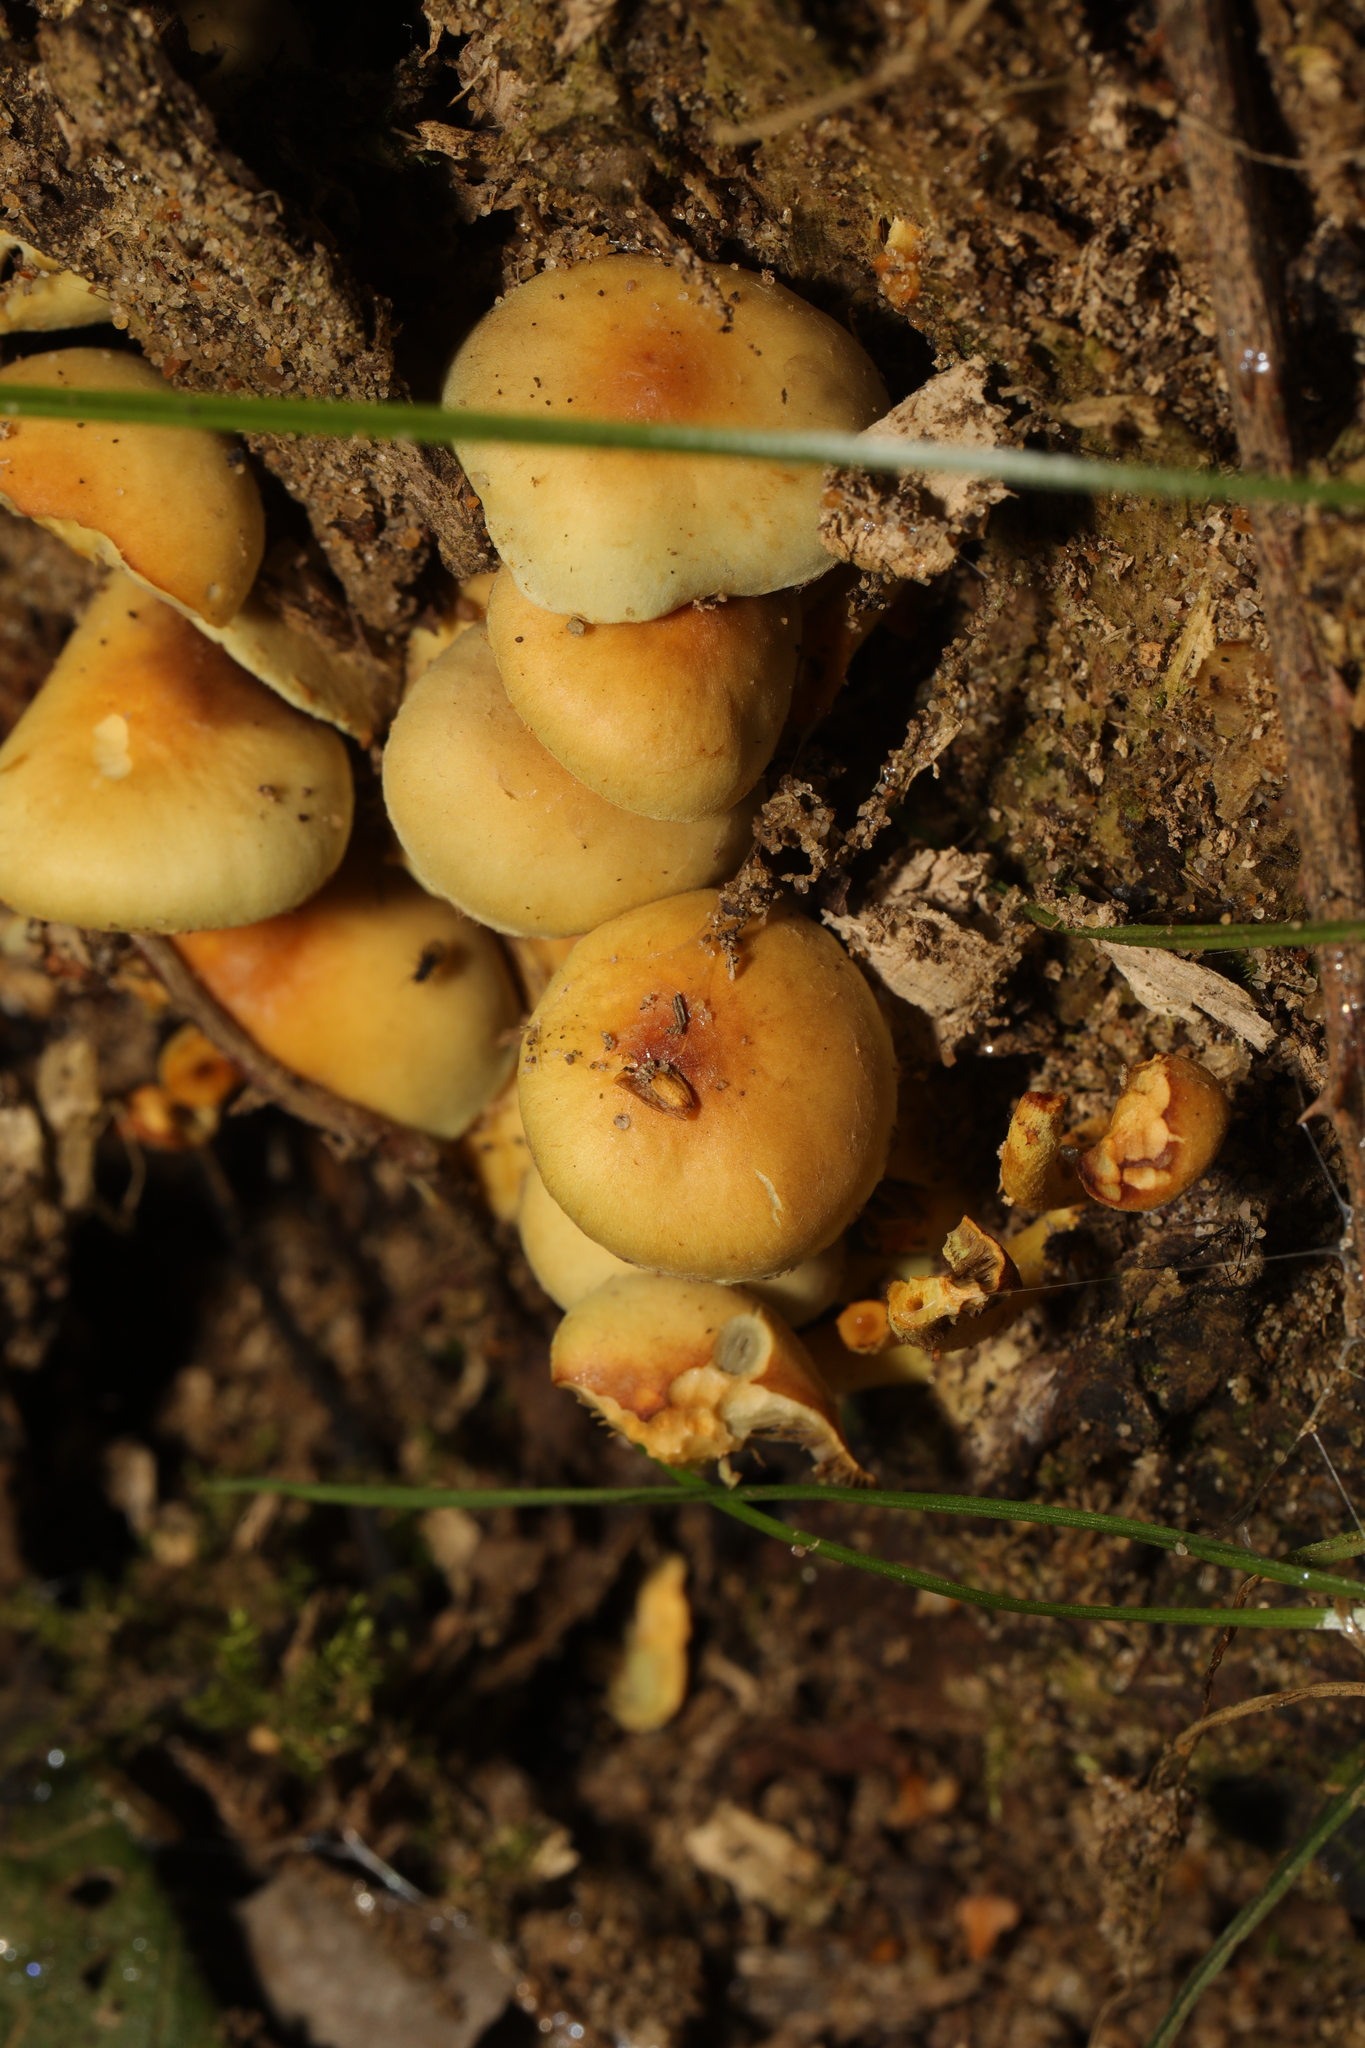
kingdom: Fungi
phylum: Basidiomycota
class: Agaricomycetes
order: Agaricales
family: Strophariaceae
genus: Hypholoma
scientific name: Hypholoma fasciculare
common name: Sulphur tuft
